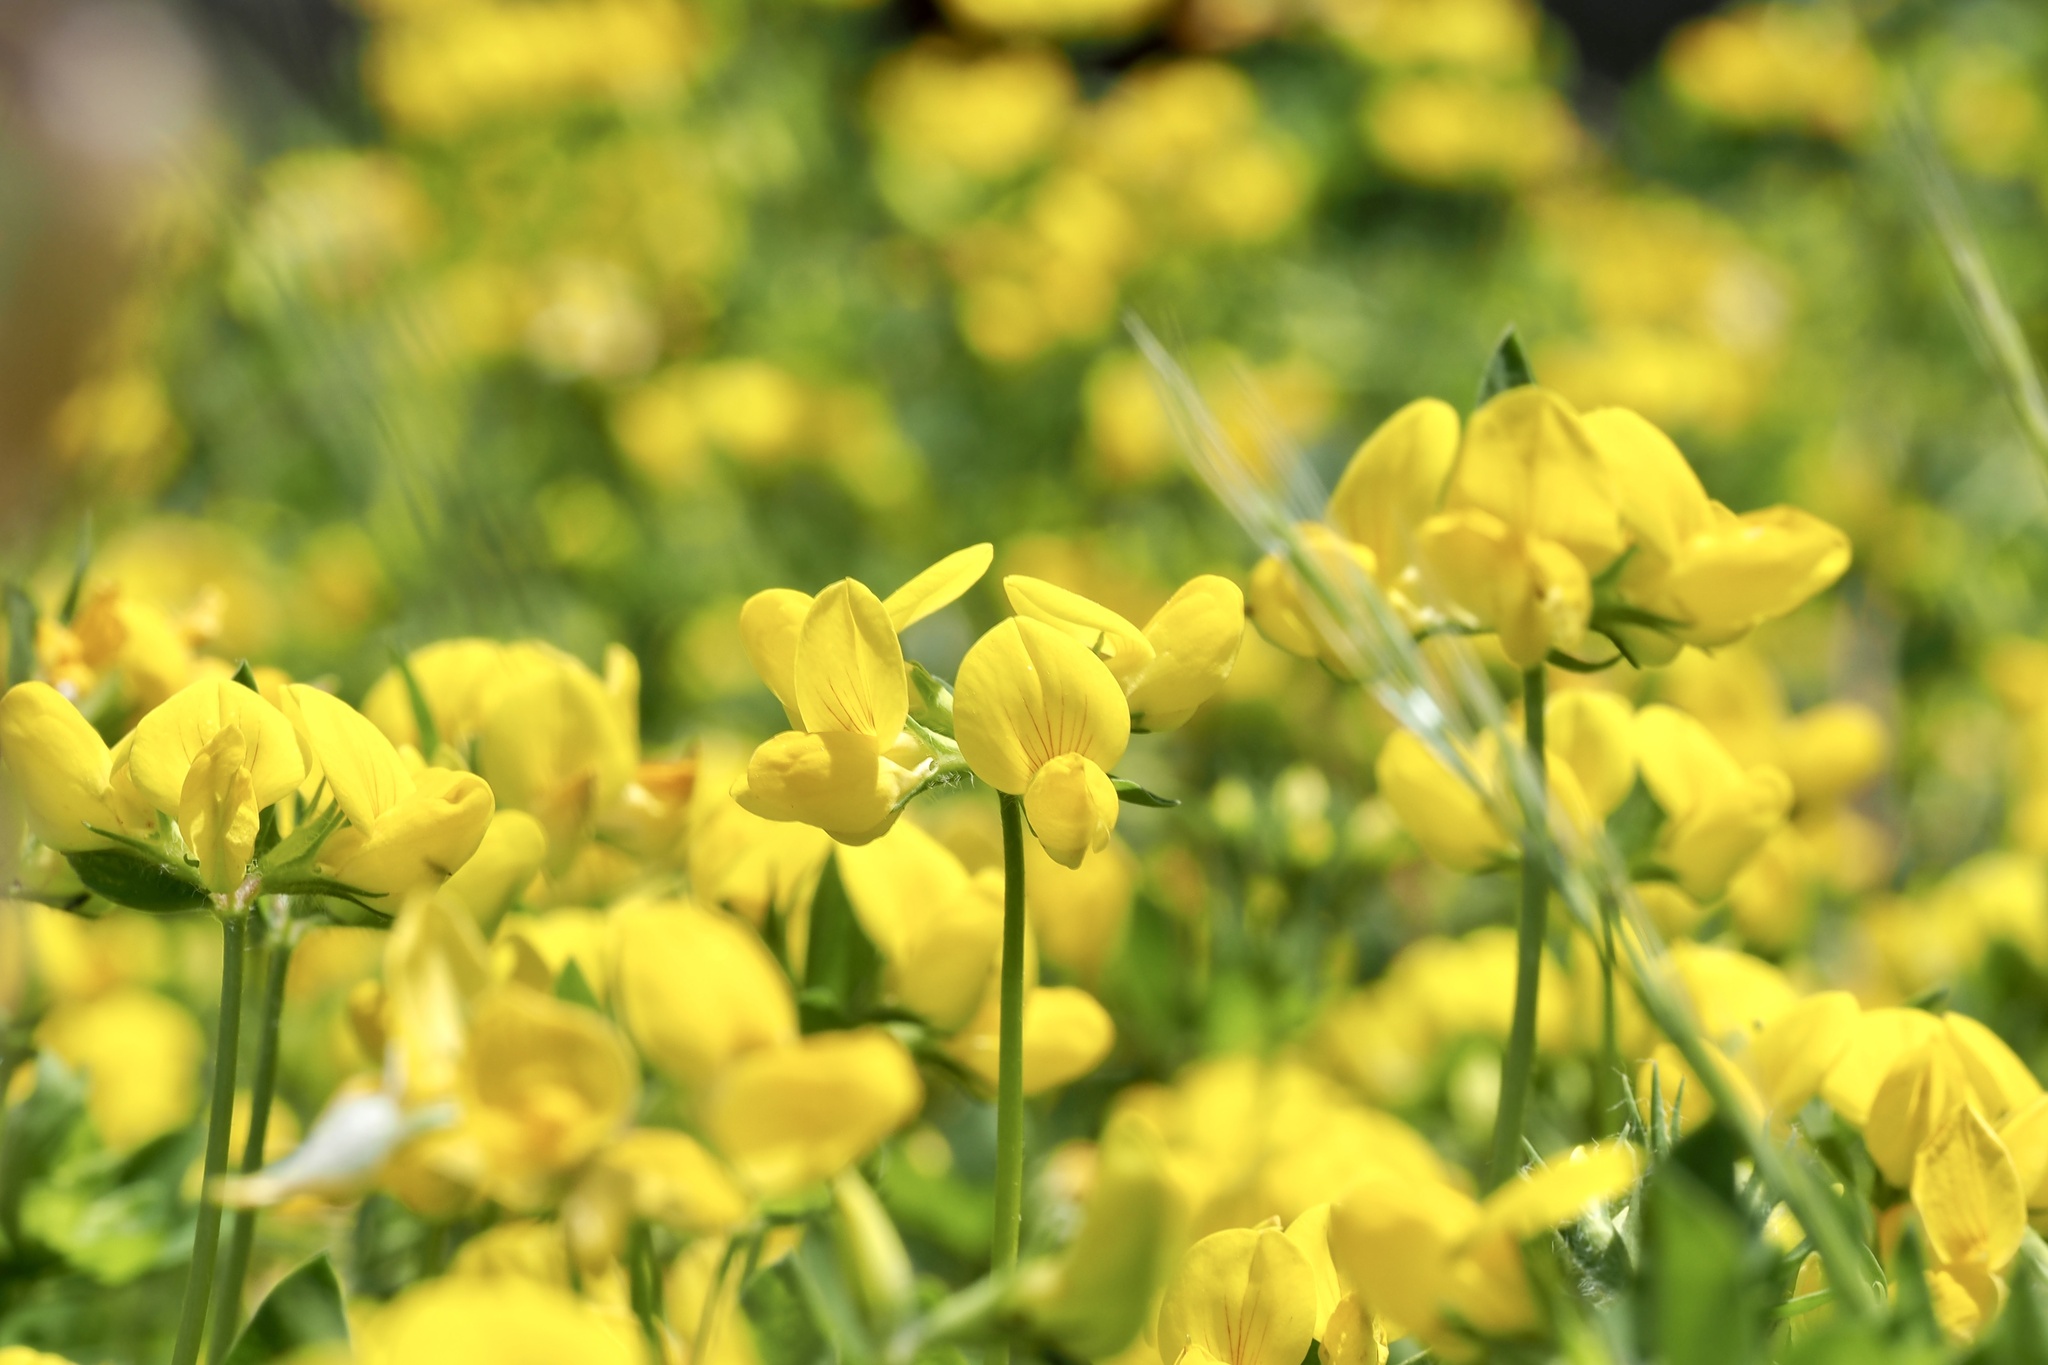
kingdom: Plantae
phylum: Tracheophyta
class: Magnoliopsida
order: Fabales
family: Fabaceae
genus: Lotus
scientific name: Lotus japonicus
